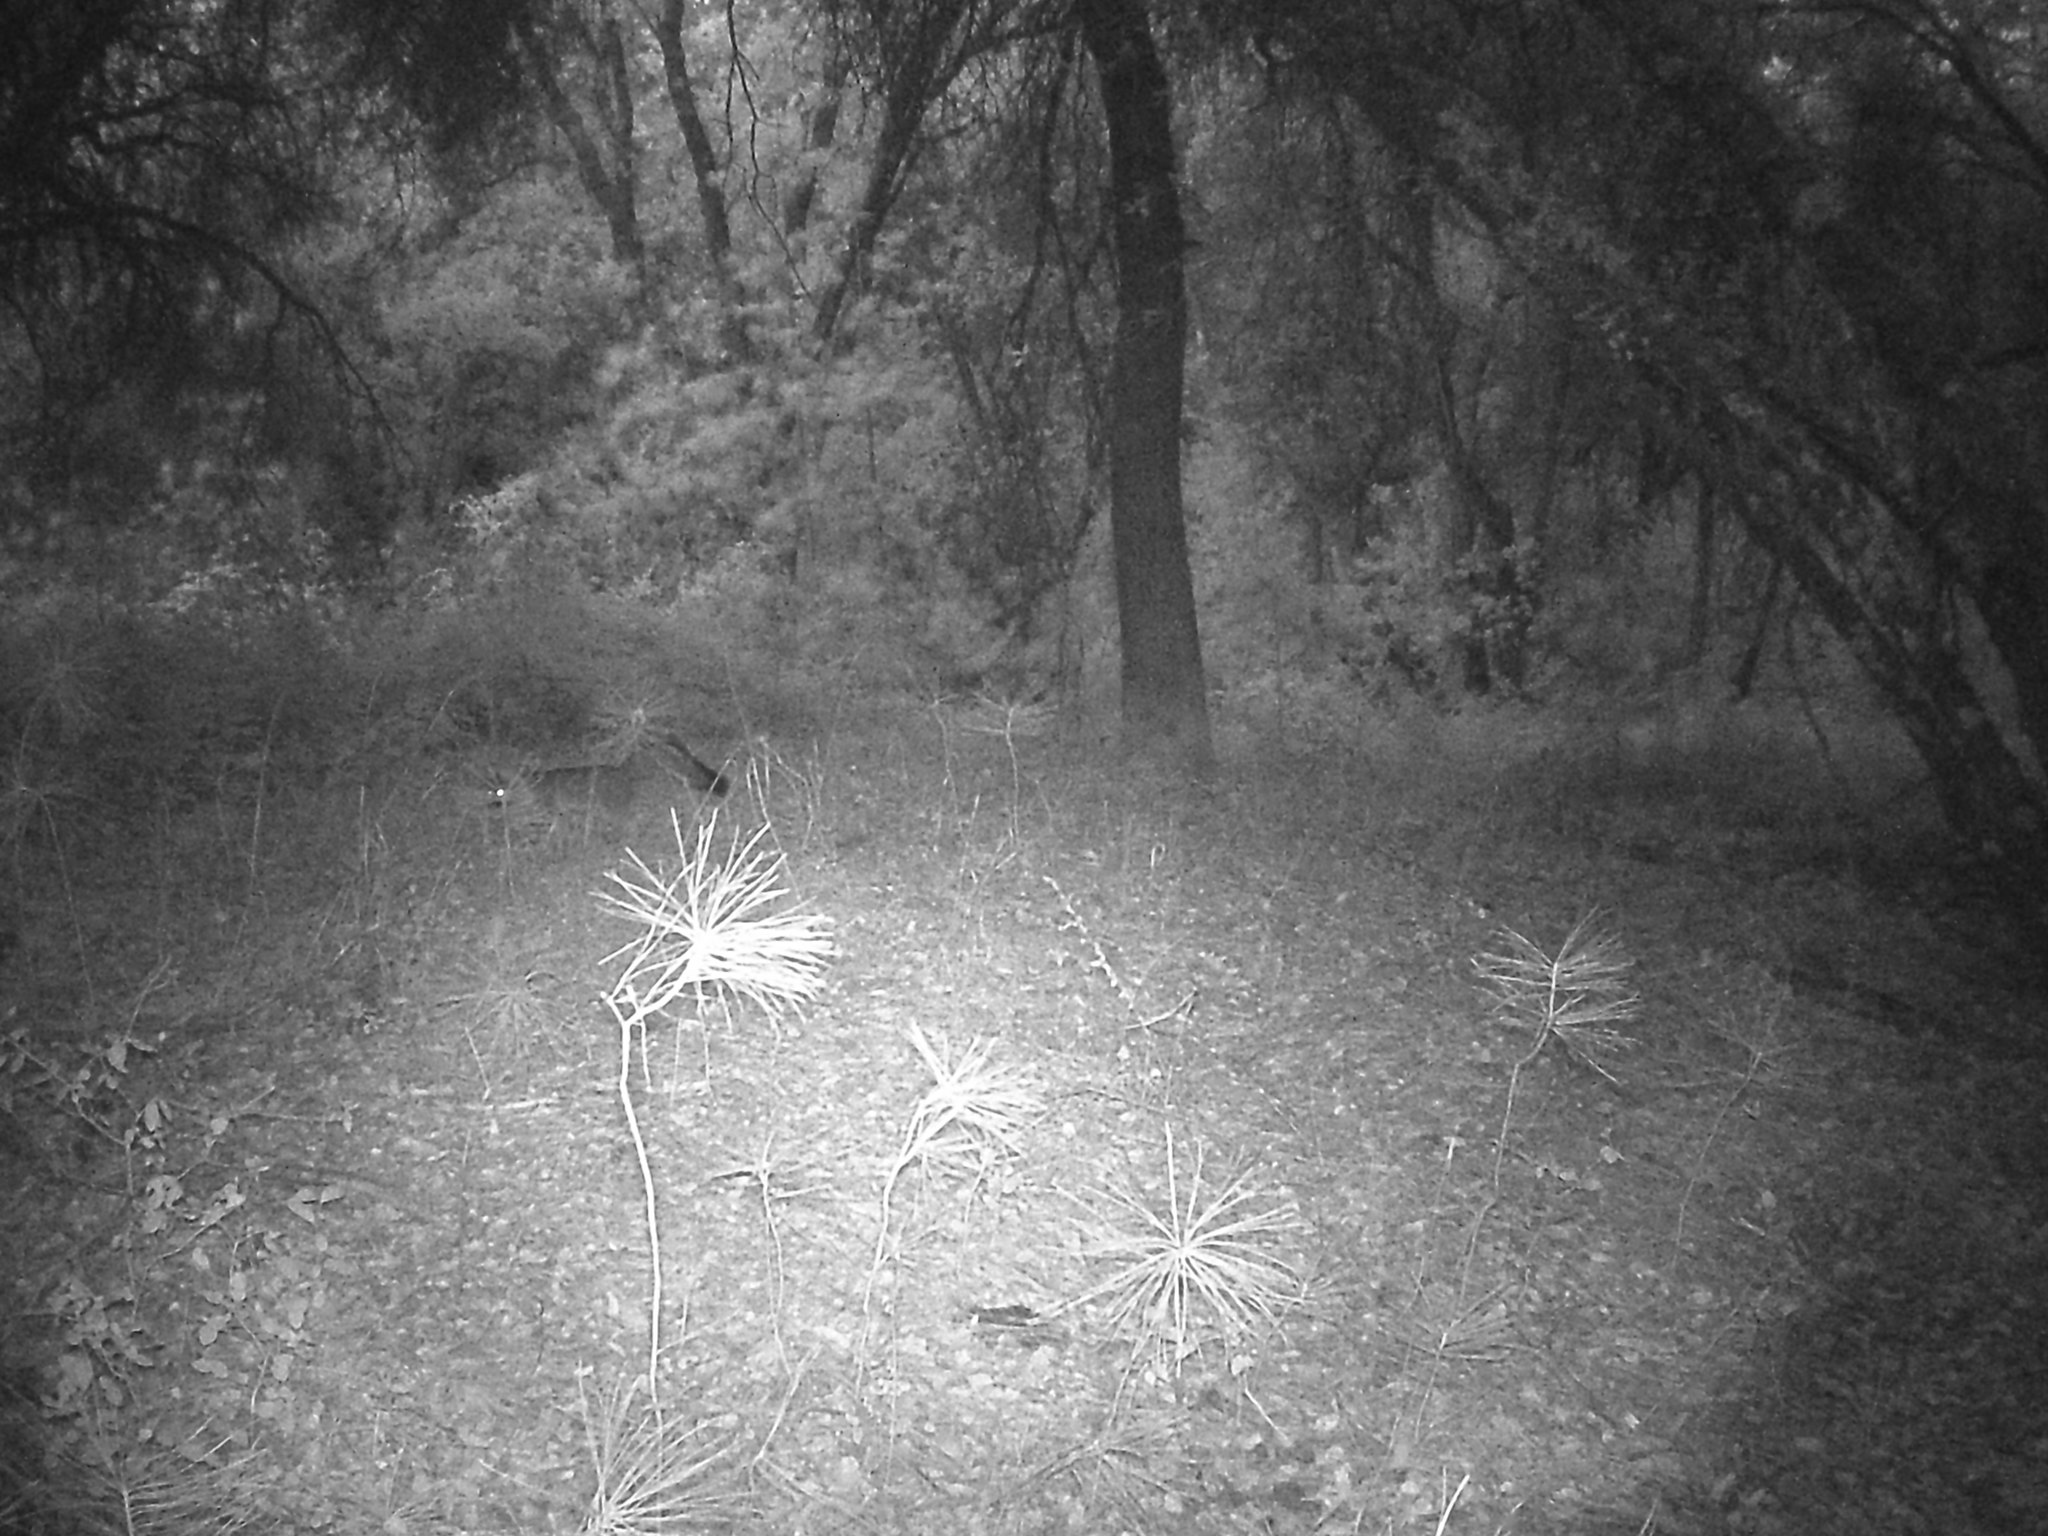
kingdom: Animalia
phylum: Chordata
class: Mammalia
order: Carnivora
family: Canidae
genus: Urocyon
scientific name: Urocyon cinereoargenteus
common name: Gray fox
